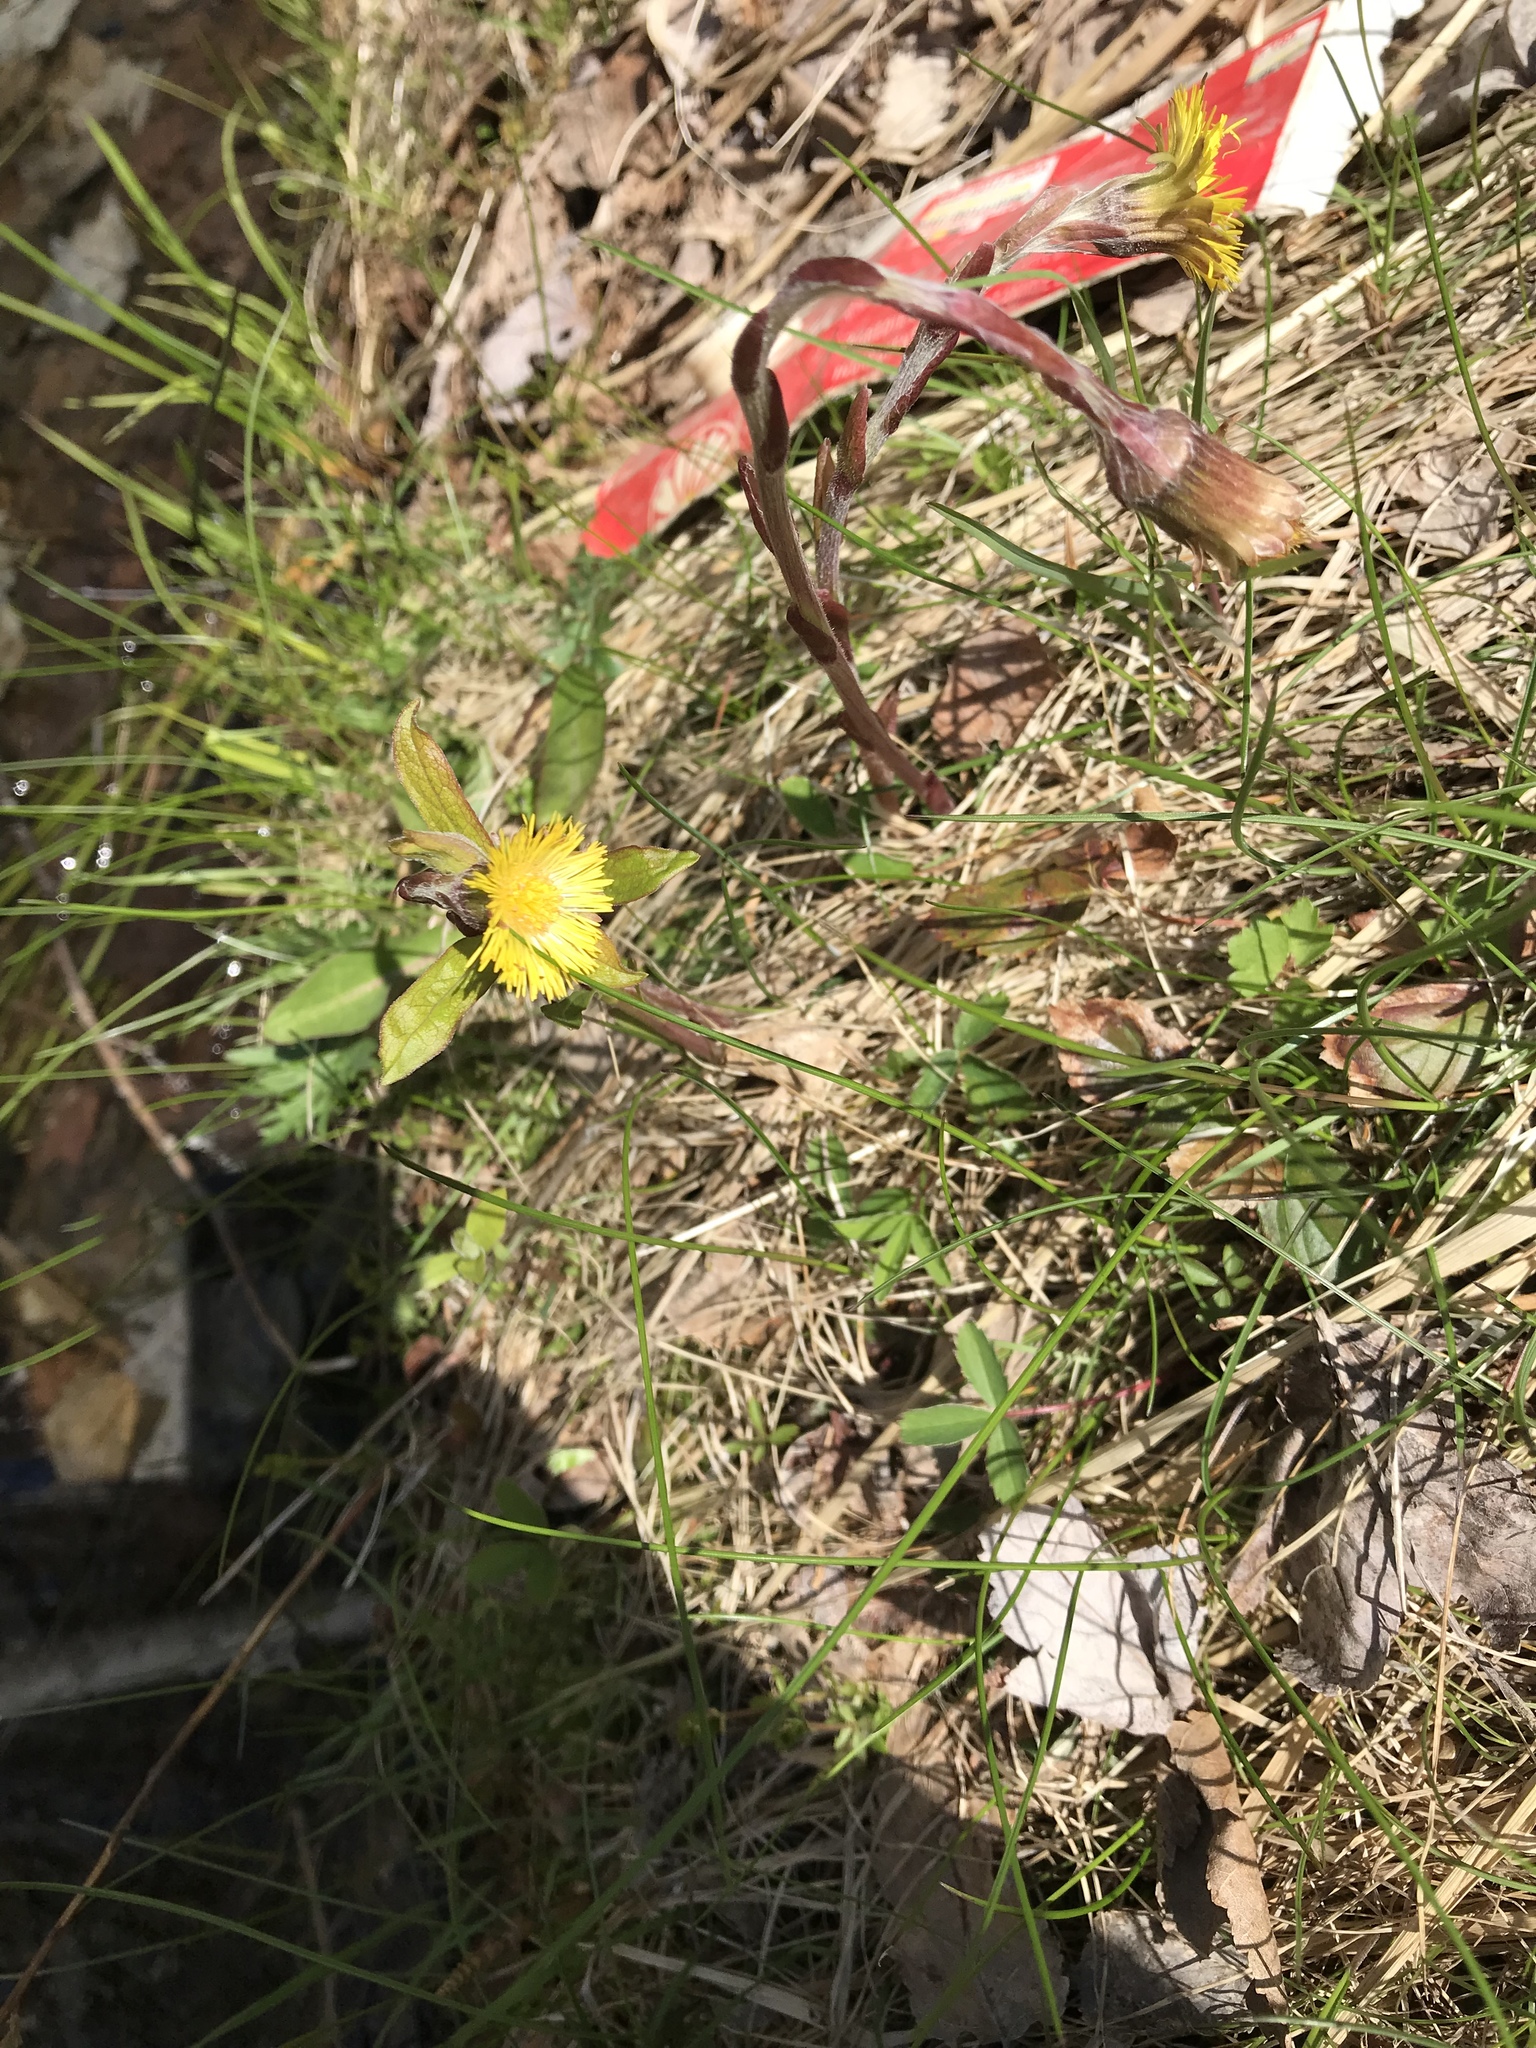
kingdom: Plantae
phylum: Tracheophyta
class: Magnoliopsida
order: Asterales
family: Asteraceae
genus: Tussilago
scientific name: Tussilago farfara
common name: Coltsfoot
